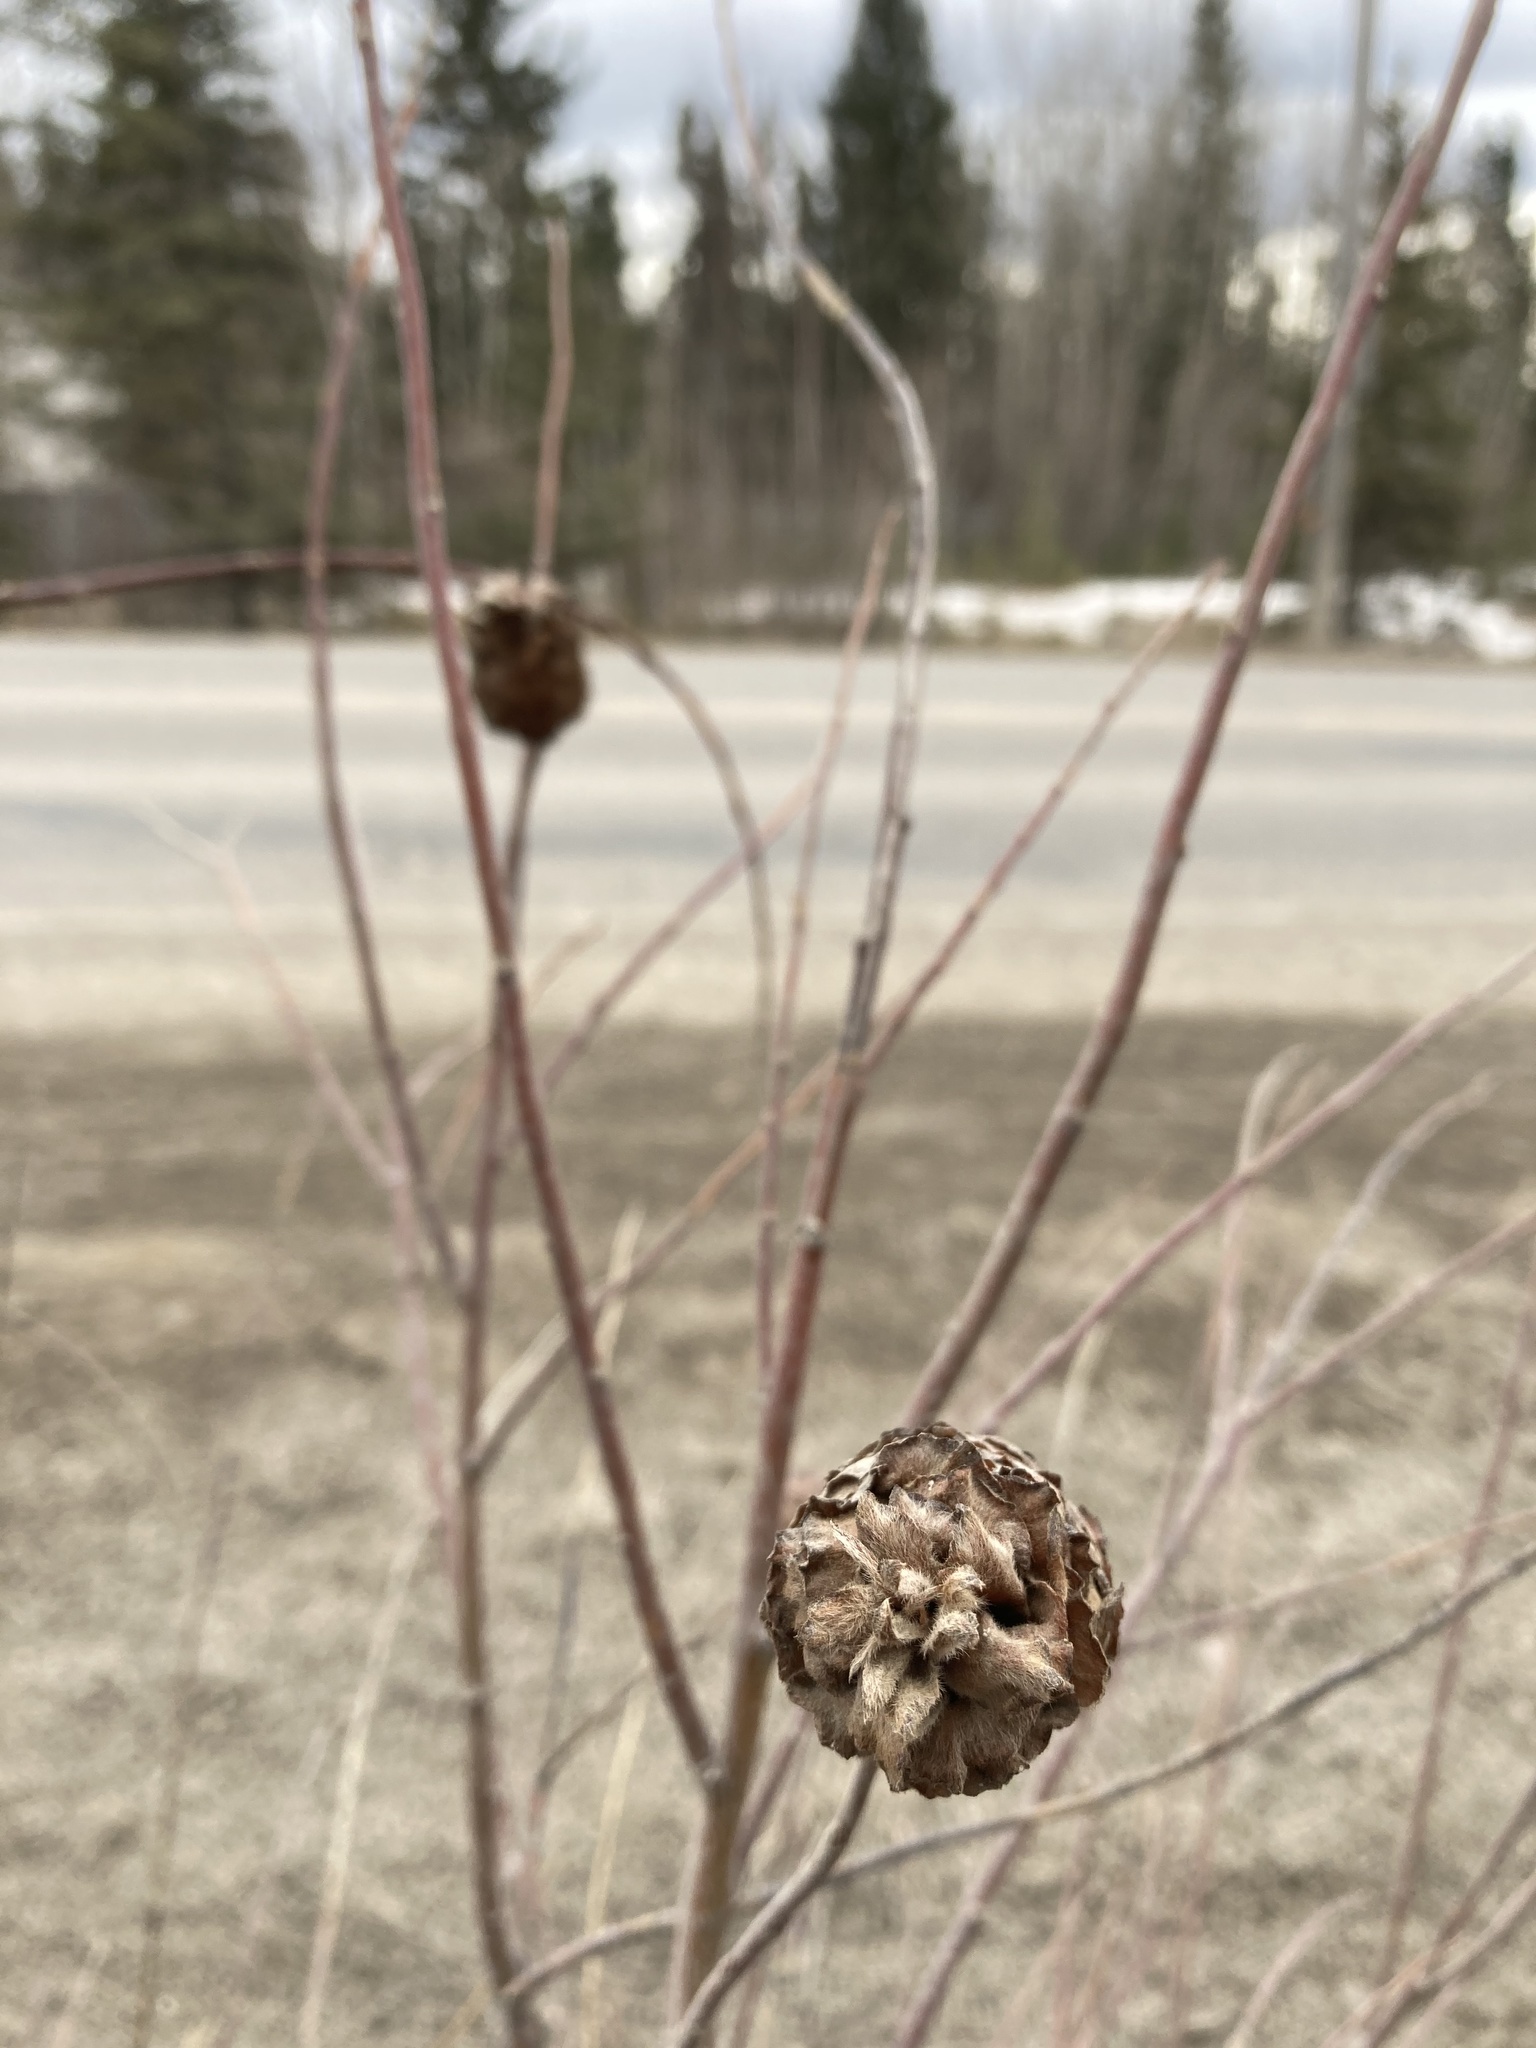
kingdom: Animalia
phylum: Arthropoda
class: Insecta
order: Diptera
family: Cecidomyiidae
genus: Rabdophaga
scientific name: Rabdophaga strobiloides
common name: Willow pinecone gall midge
